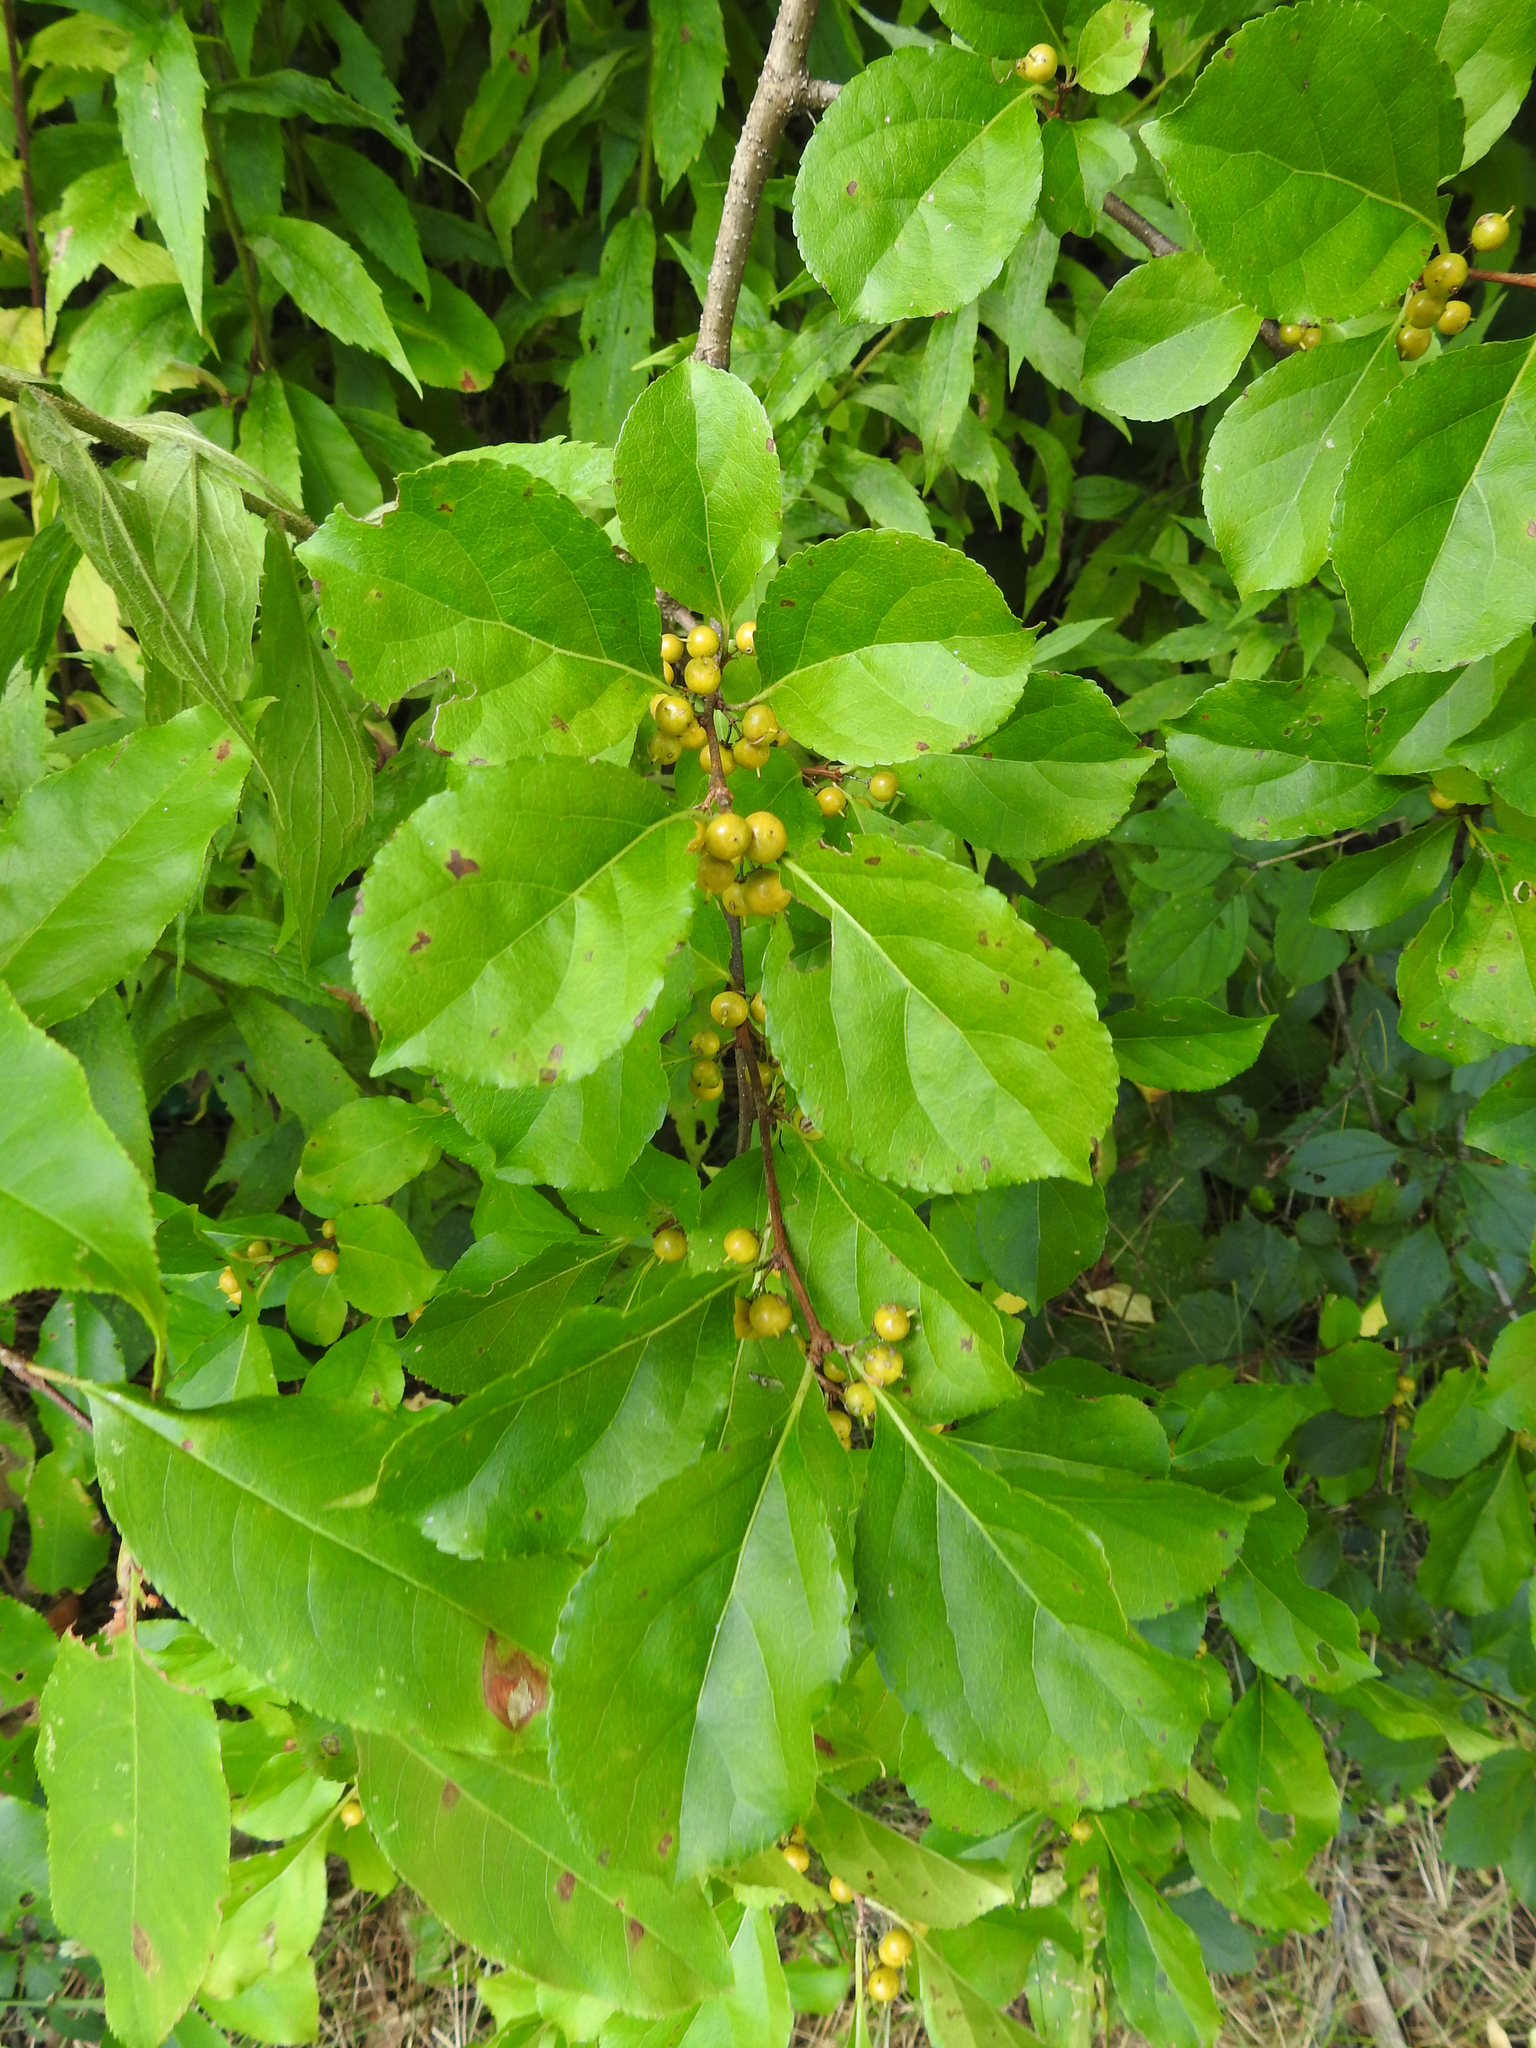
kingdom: Plantae
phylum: Tracheophyta
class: Magnoliopsida
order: Celastrales
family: Celastraceae
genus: Celastrus
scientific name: Celastrus orbiculatus
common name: Oriental bittersweet
